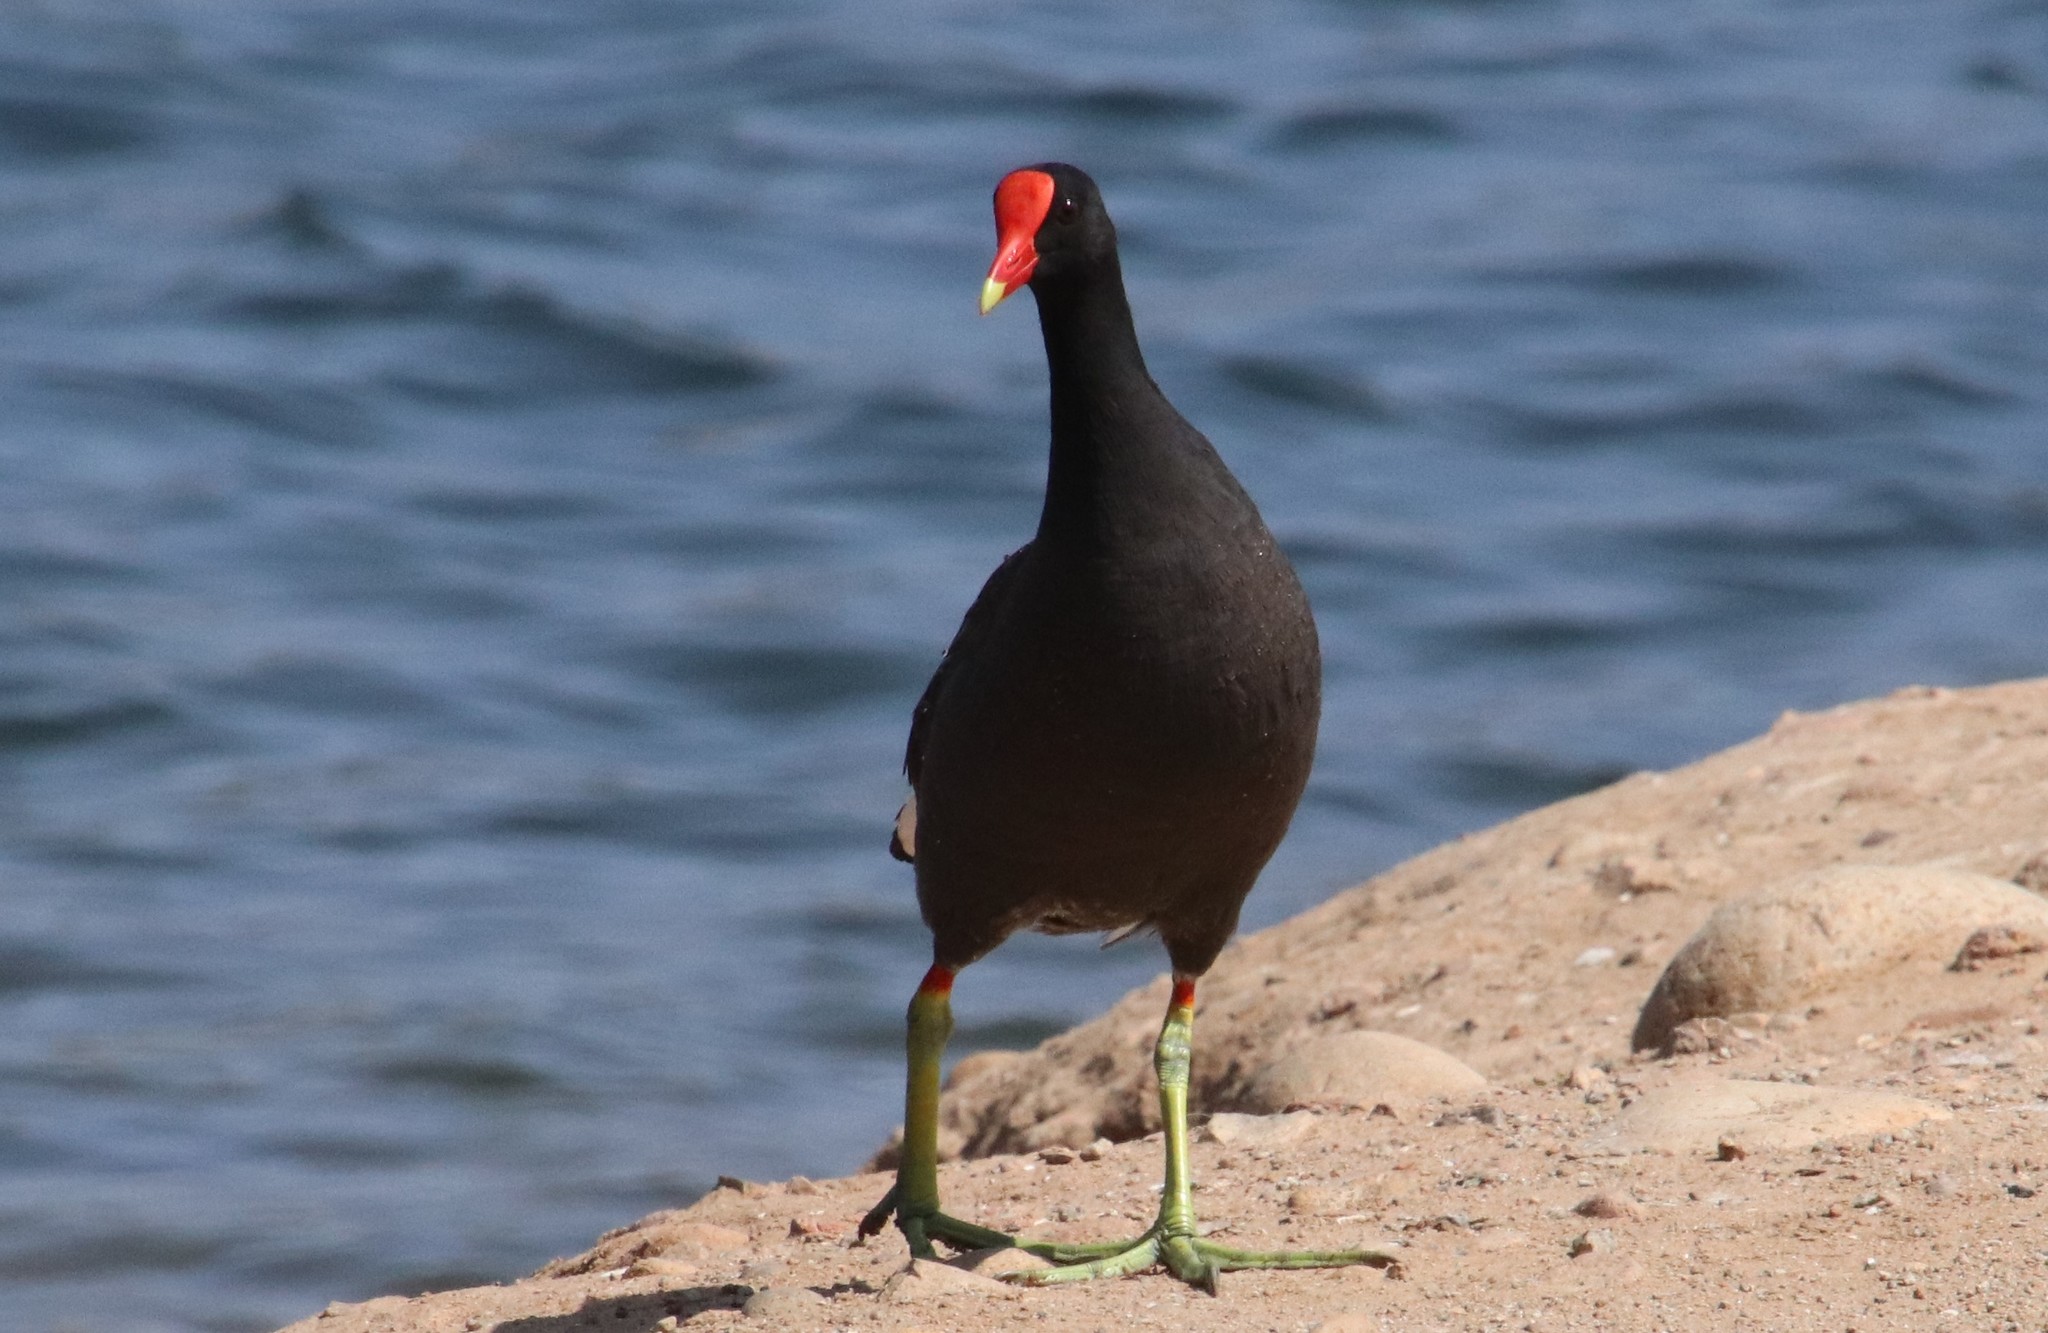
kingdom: Animalia
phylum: Chordata
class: Aves
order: Gruiformes
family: Rallidae
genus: Gallinula
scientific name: Gallinula chloropus
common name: Common moorhen
